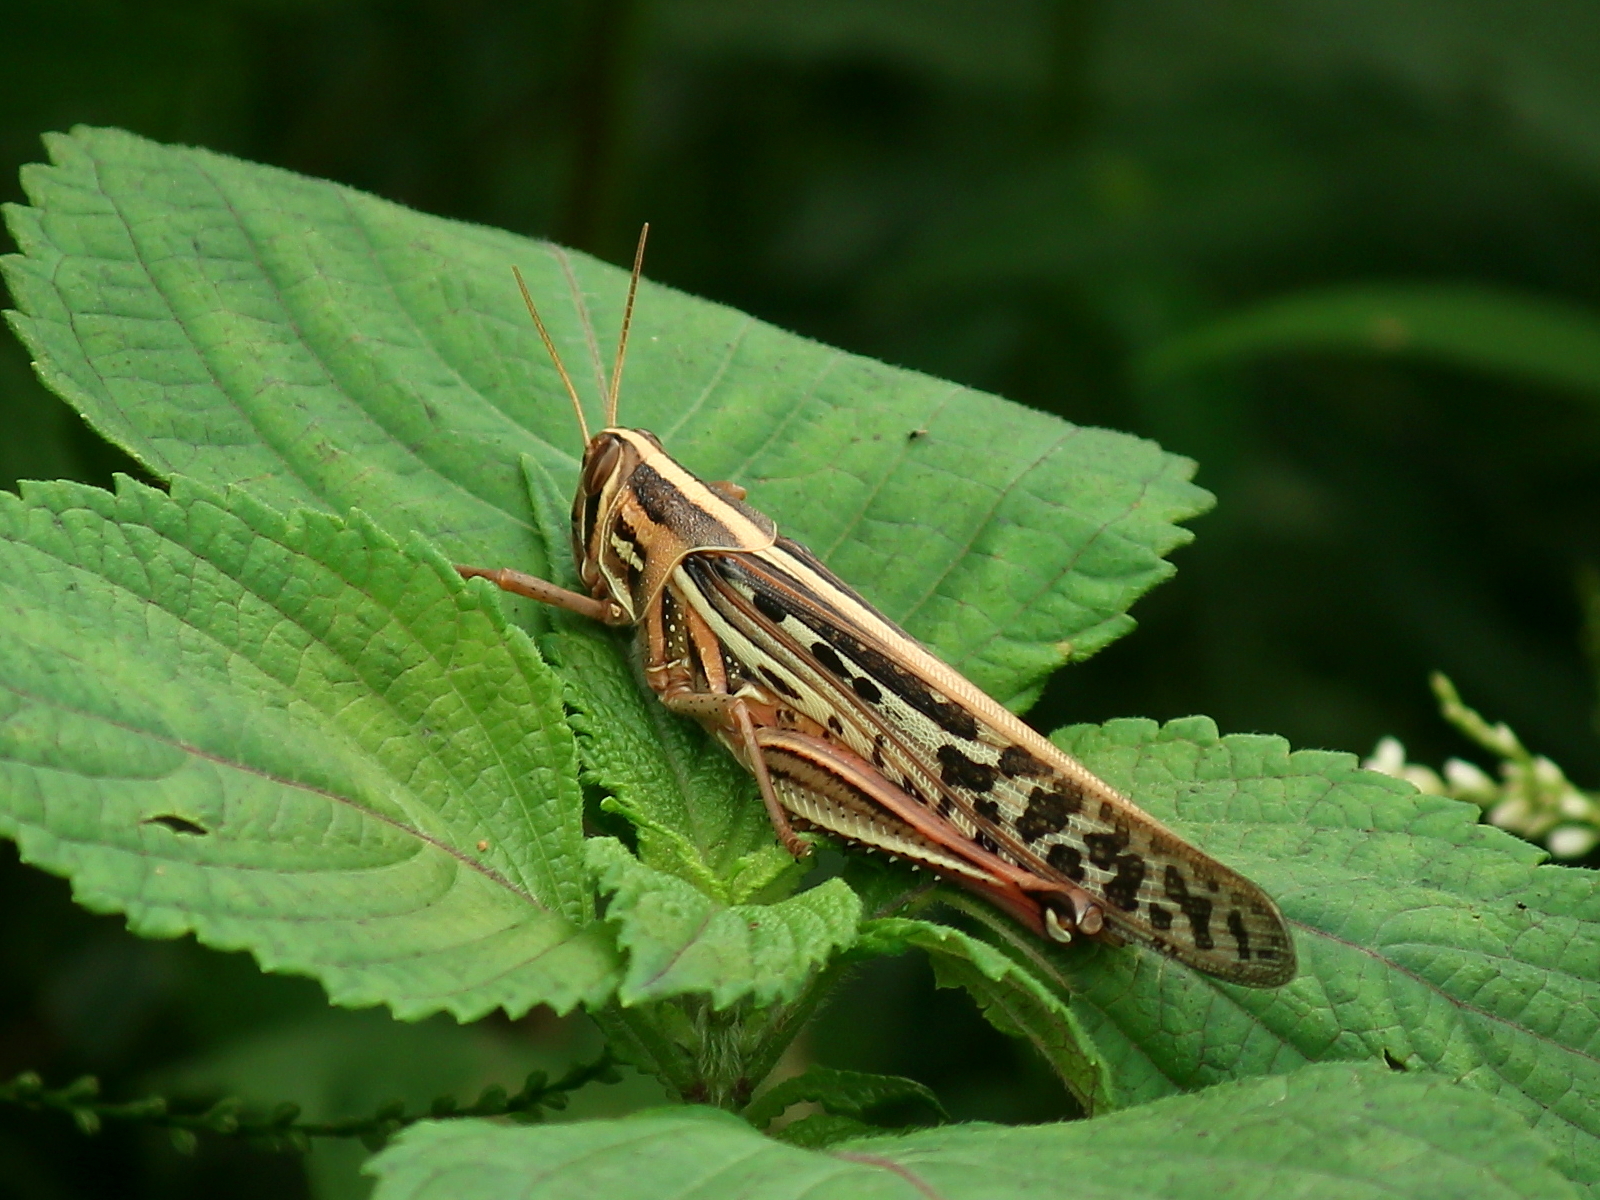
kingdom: Animalia
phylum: Arthropoda
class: Insecta
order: Orthoptera
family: Acrididae
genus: Schistocerca
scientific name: Schistocerca americana
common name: American bird locust
